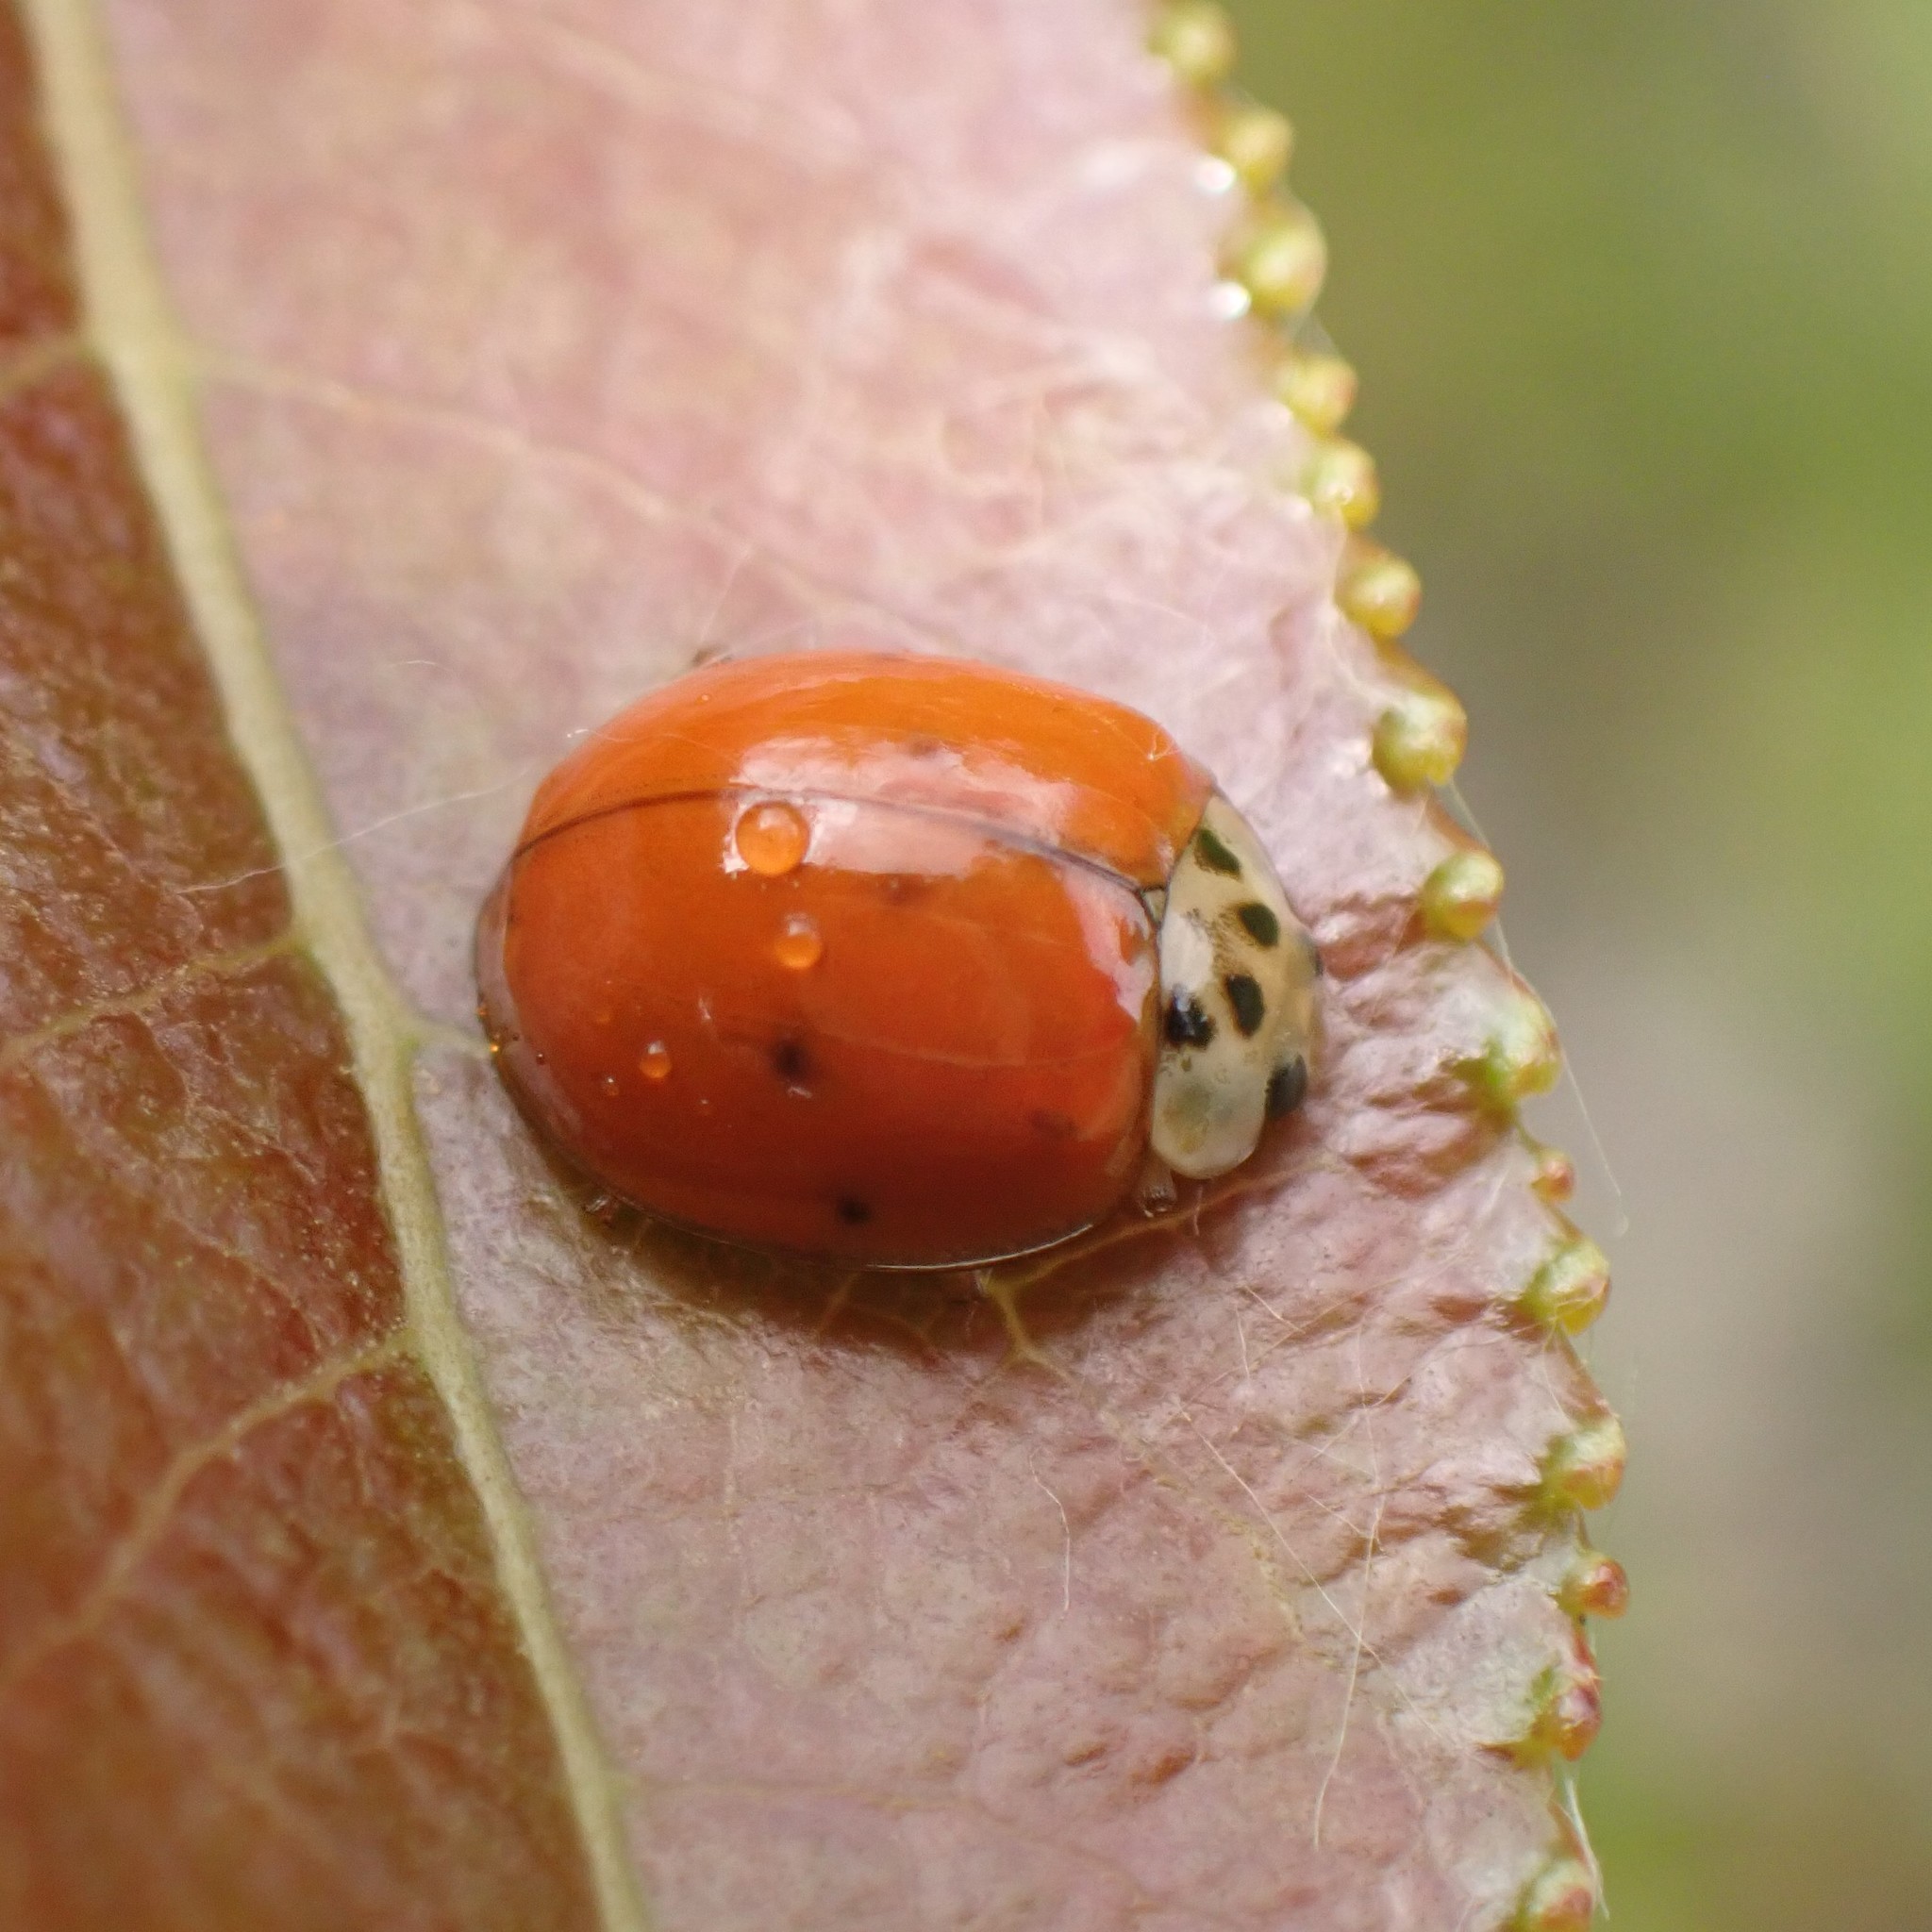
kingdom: Animalia
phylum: Arthropoda
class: Insecta
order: Coleoptera
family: Coccinellidae
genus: Harmonia
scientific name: Harmonia axyridis
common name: Harlequin ladybird
